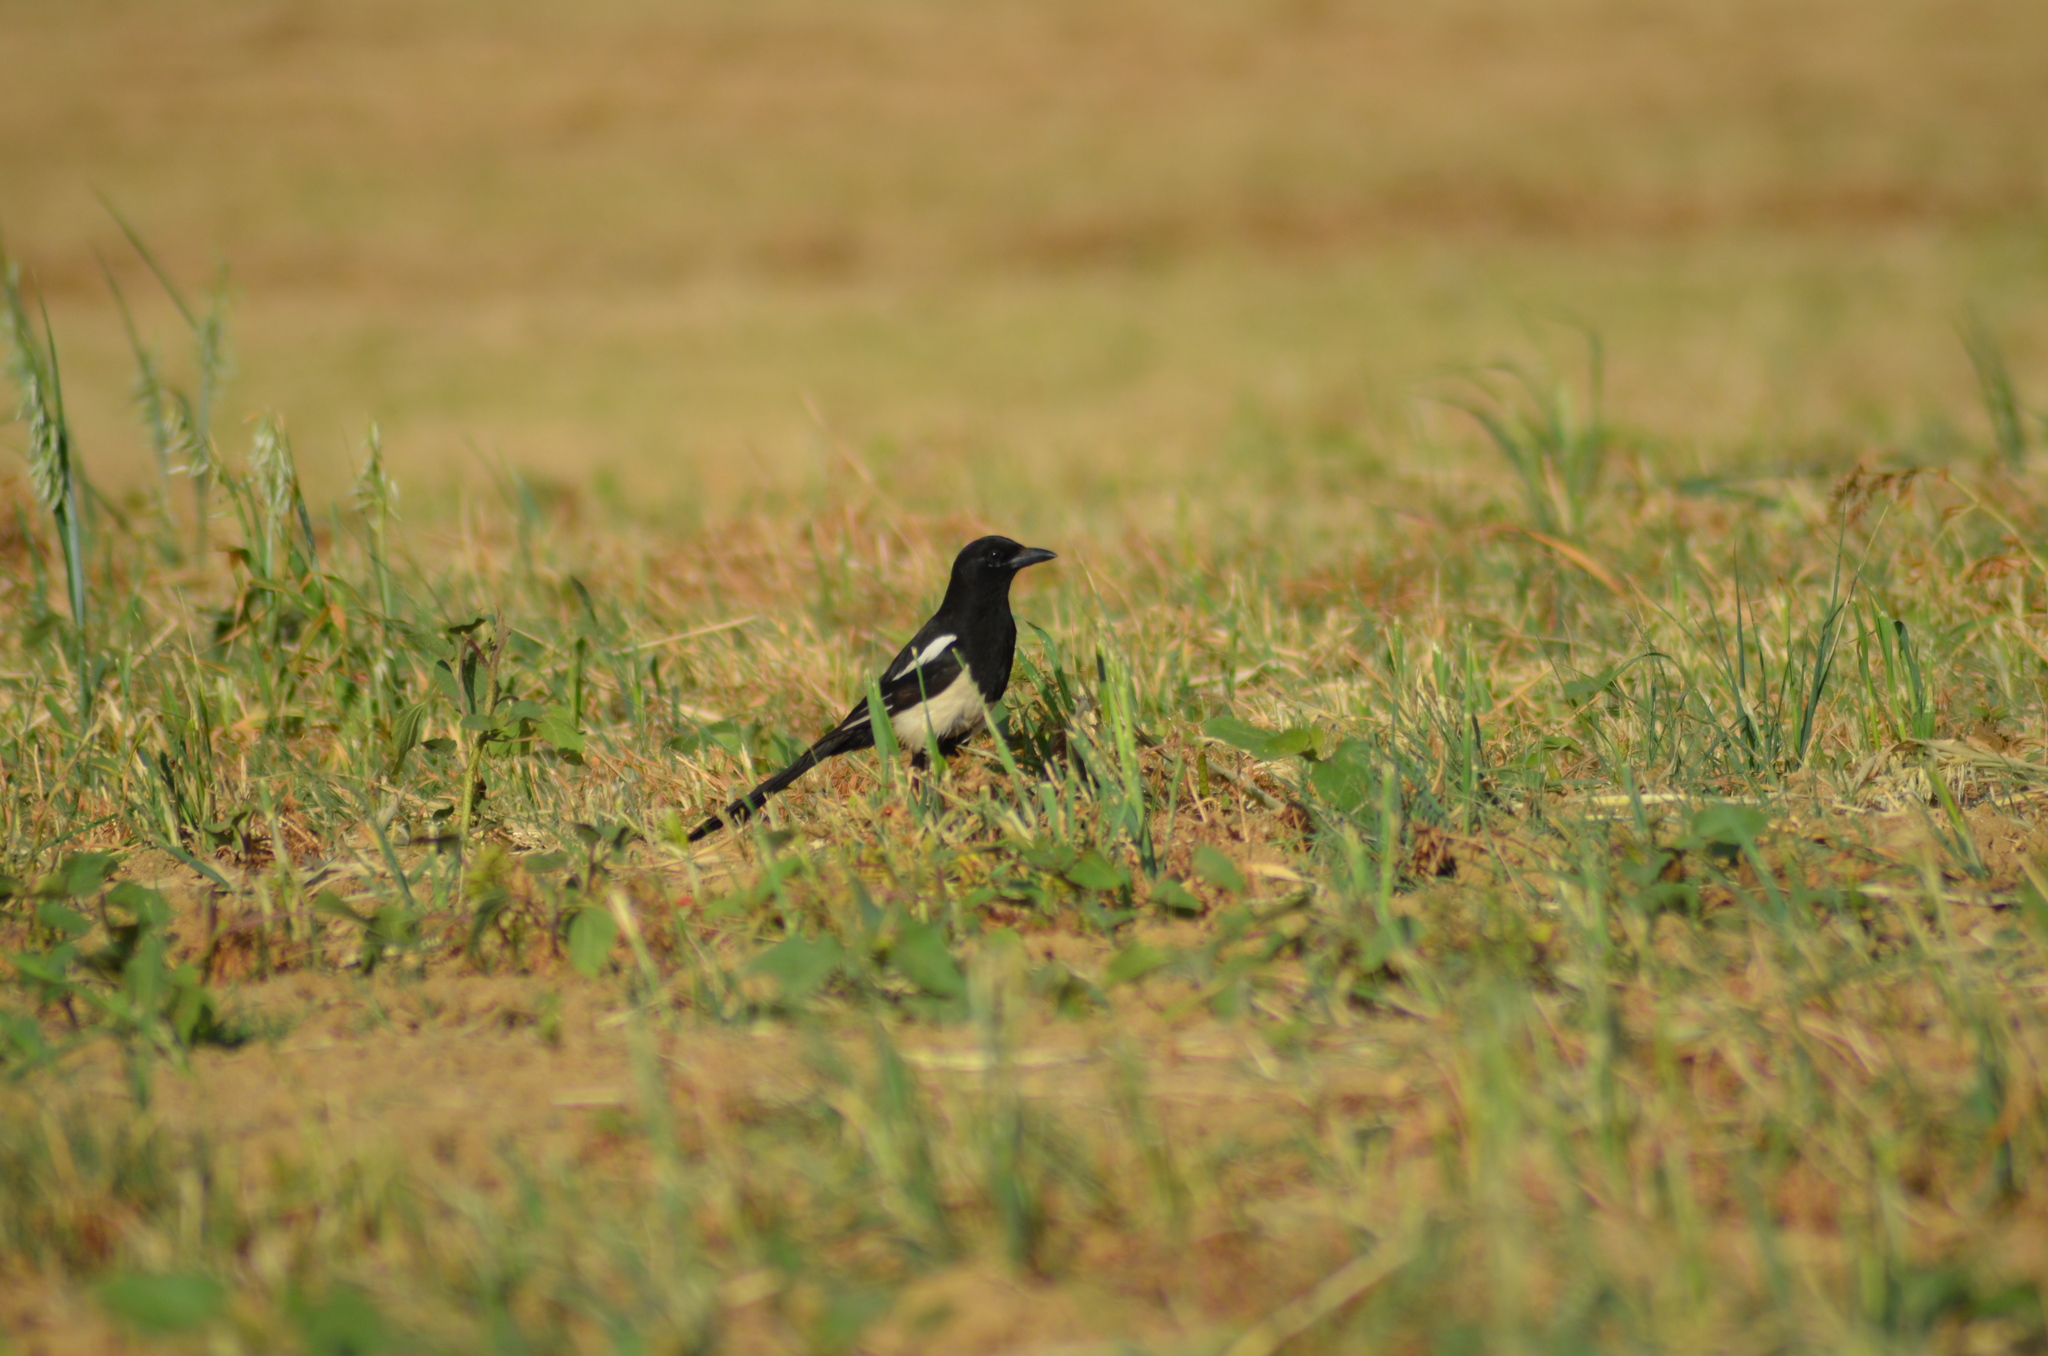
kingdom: Animalia
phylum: Chordata
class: Aves
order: Passeriformes
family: Corvidae
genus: Pica
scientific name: Pica pica
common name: Eurasian magpie
